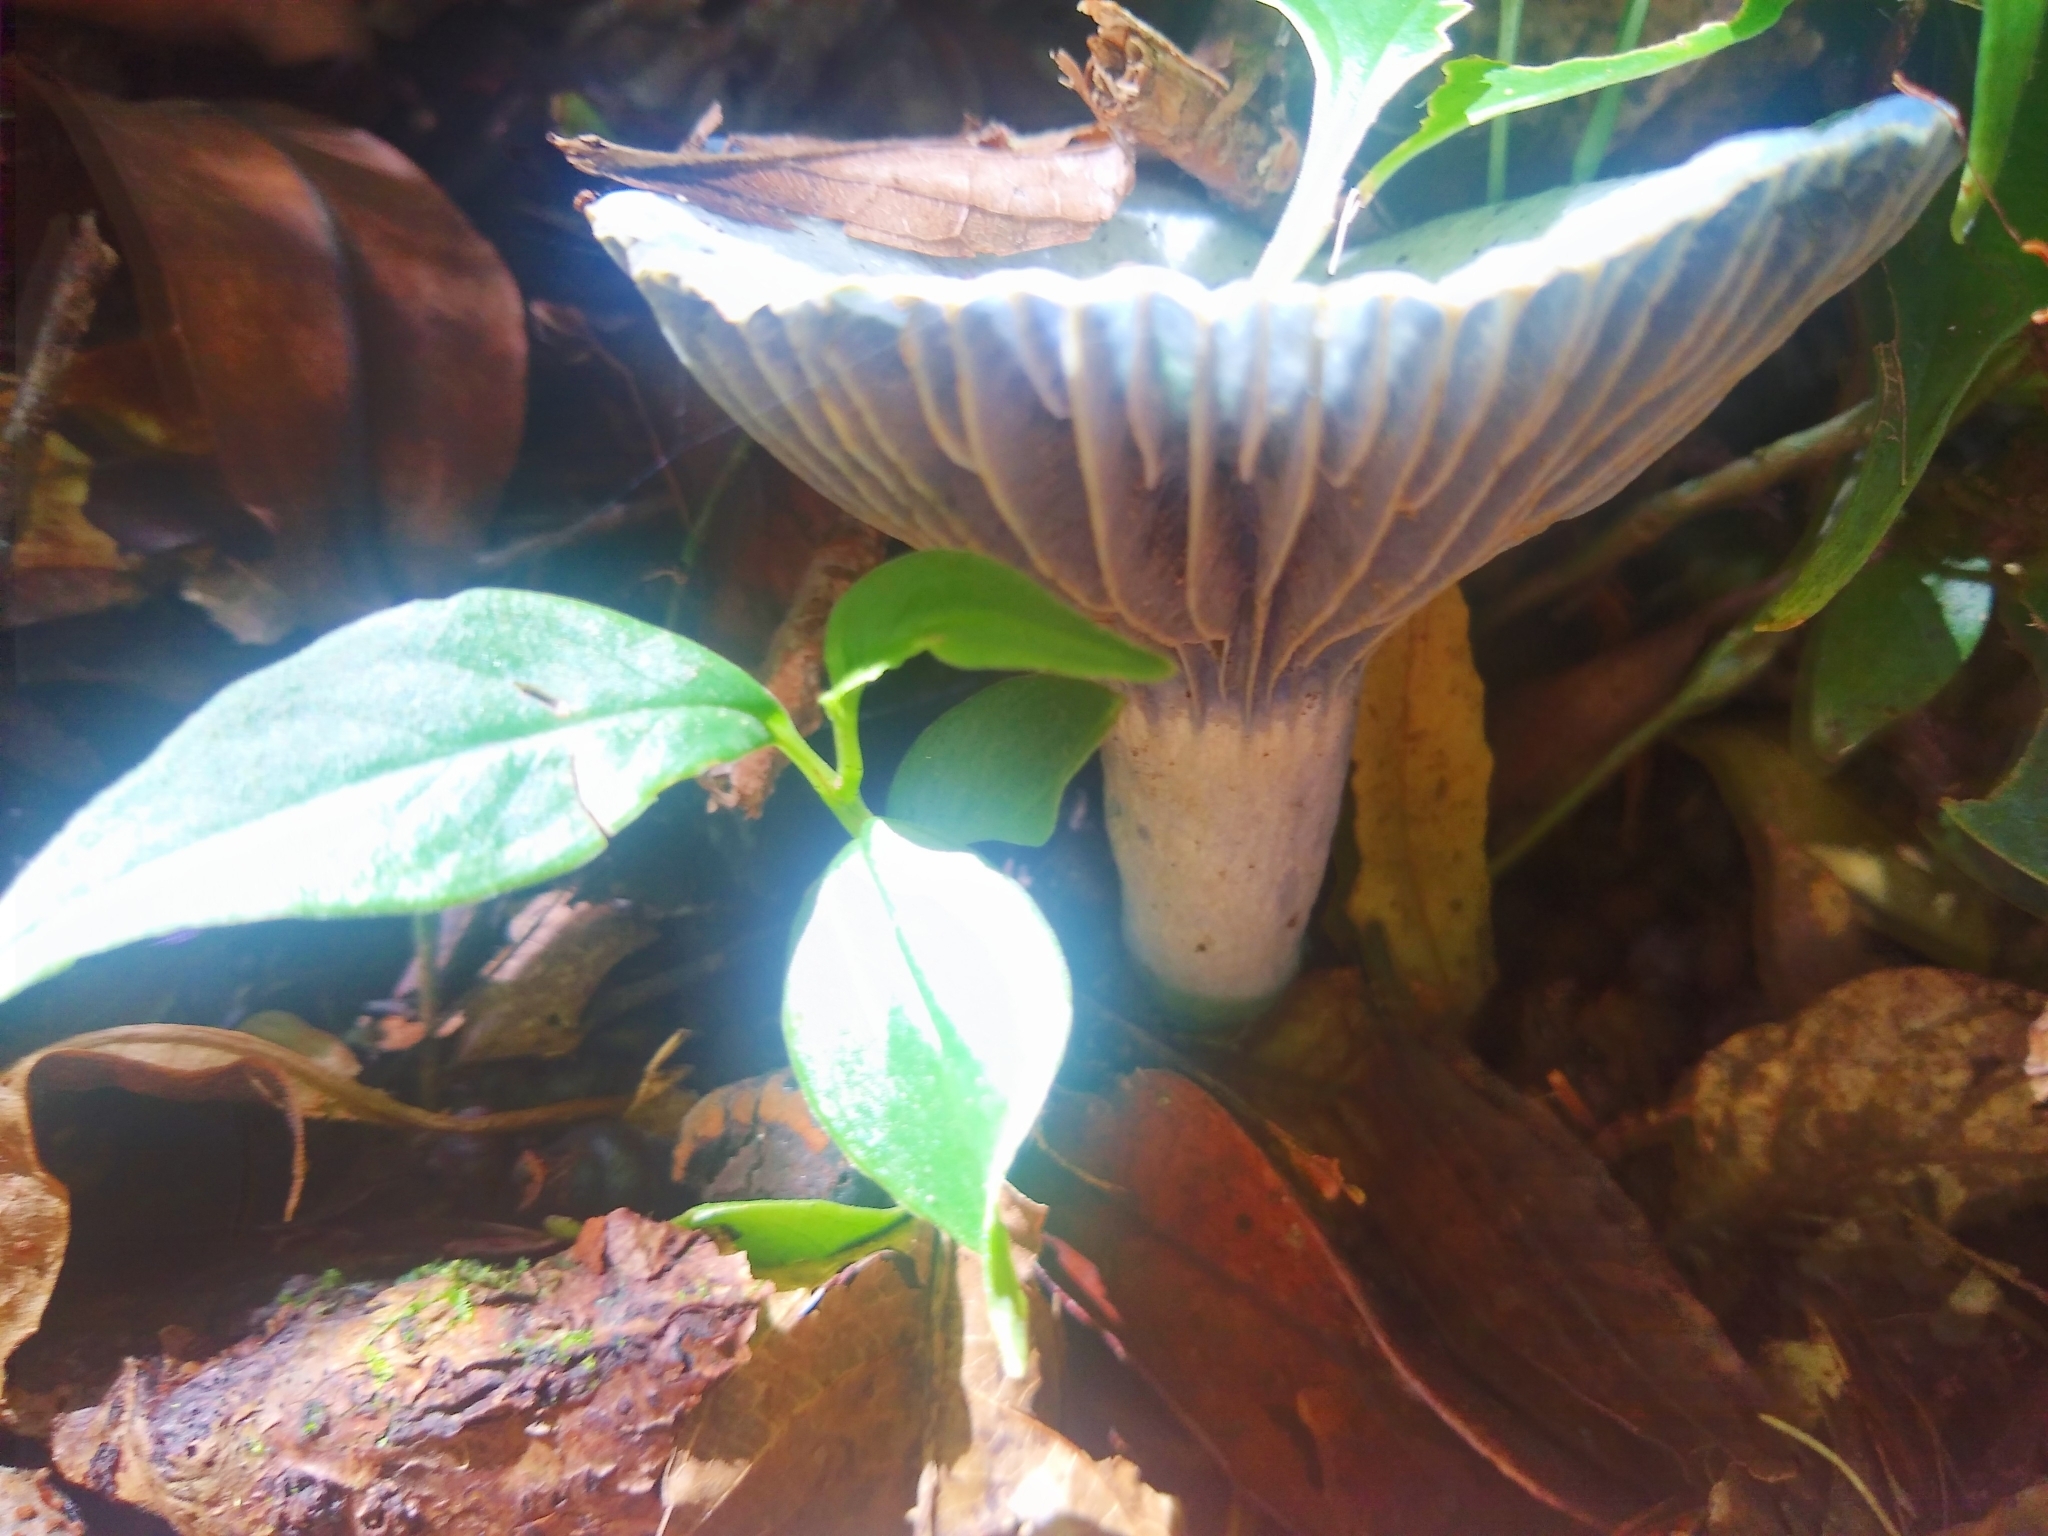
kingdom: Fungi
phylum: Basidiomycota
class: Agaricomycetes
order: Russulales
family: Russulaceae
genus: Lactarius
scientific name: Lactarius indigo
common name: Indigo milk cap
